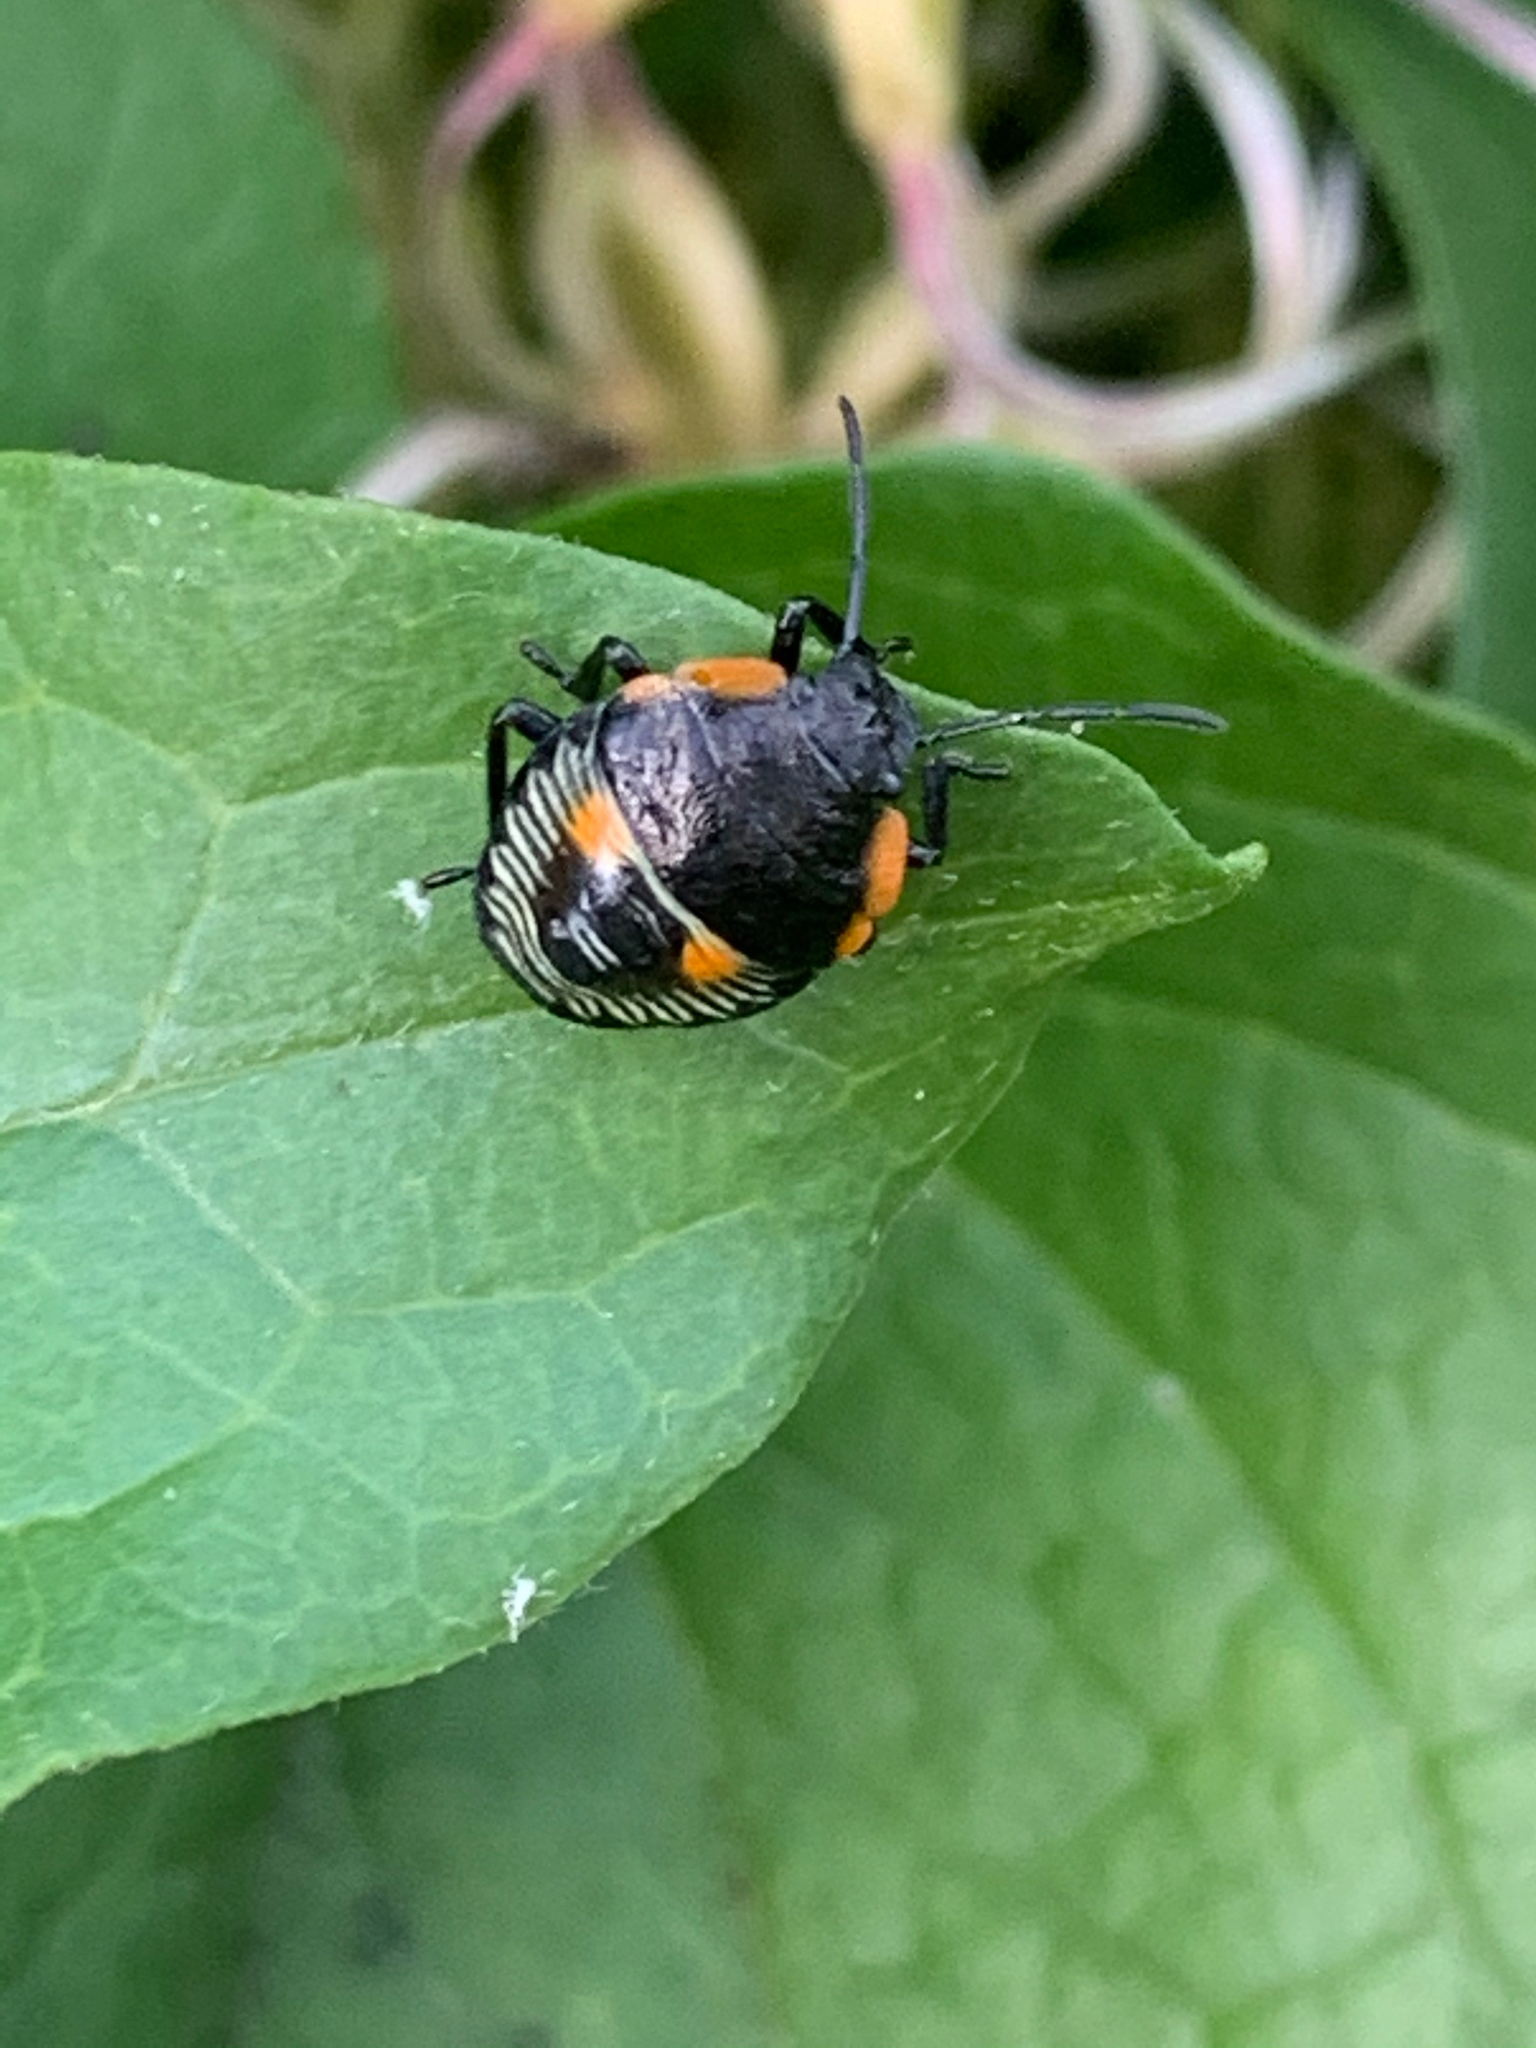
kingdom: Animalia
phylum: Arthropoda
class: Insecta
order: Hemiptera
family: Pentatomidae
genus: Chinavia
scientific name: Chinavia hilaris
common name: Green stink bug
